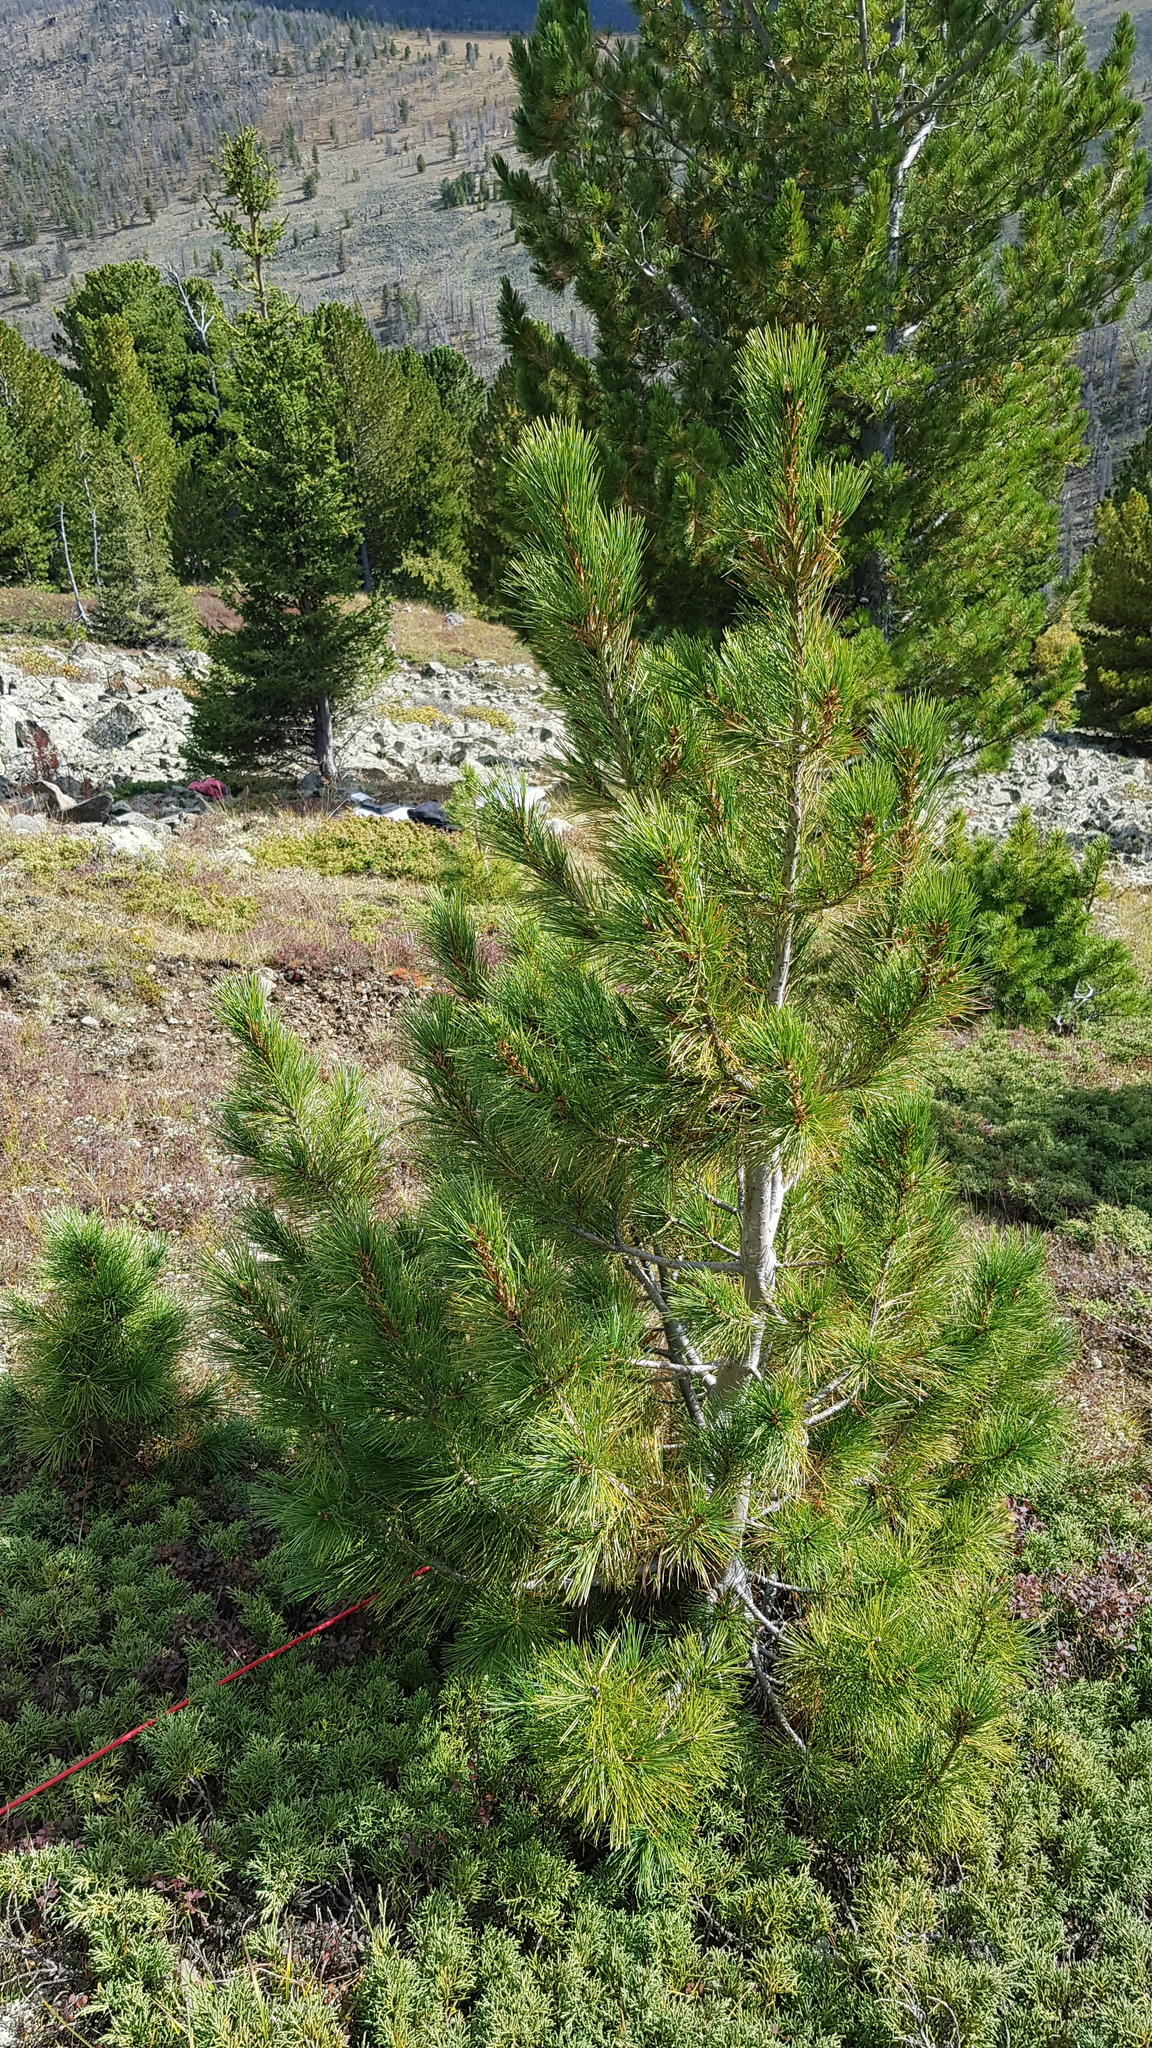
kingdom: Plantae
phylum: Tracheophyta
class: Pinopsida
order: Pinales
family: Pinaceae
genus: Pinus
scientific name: Pinus sibirica
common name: Siberian pine
